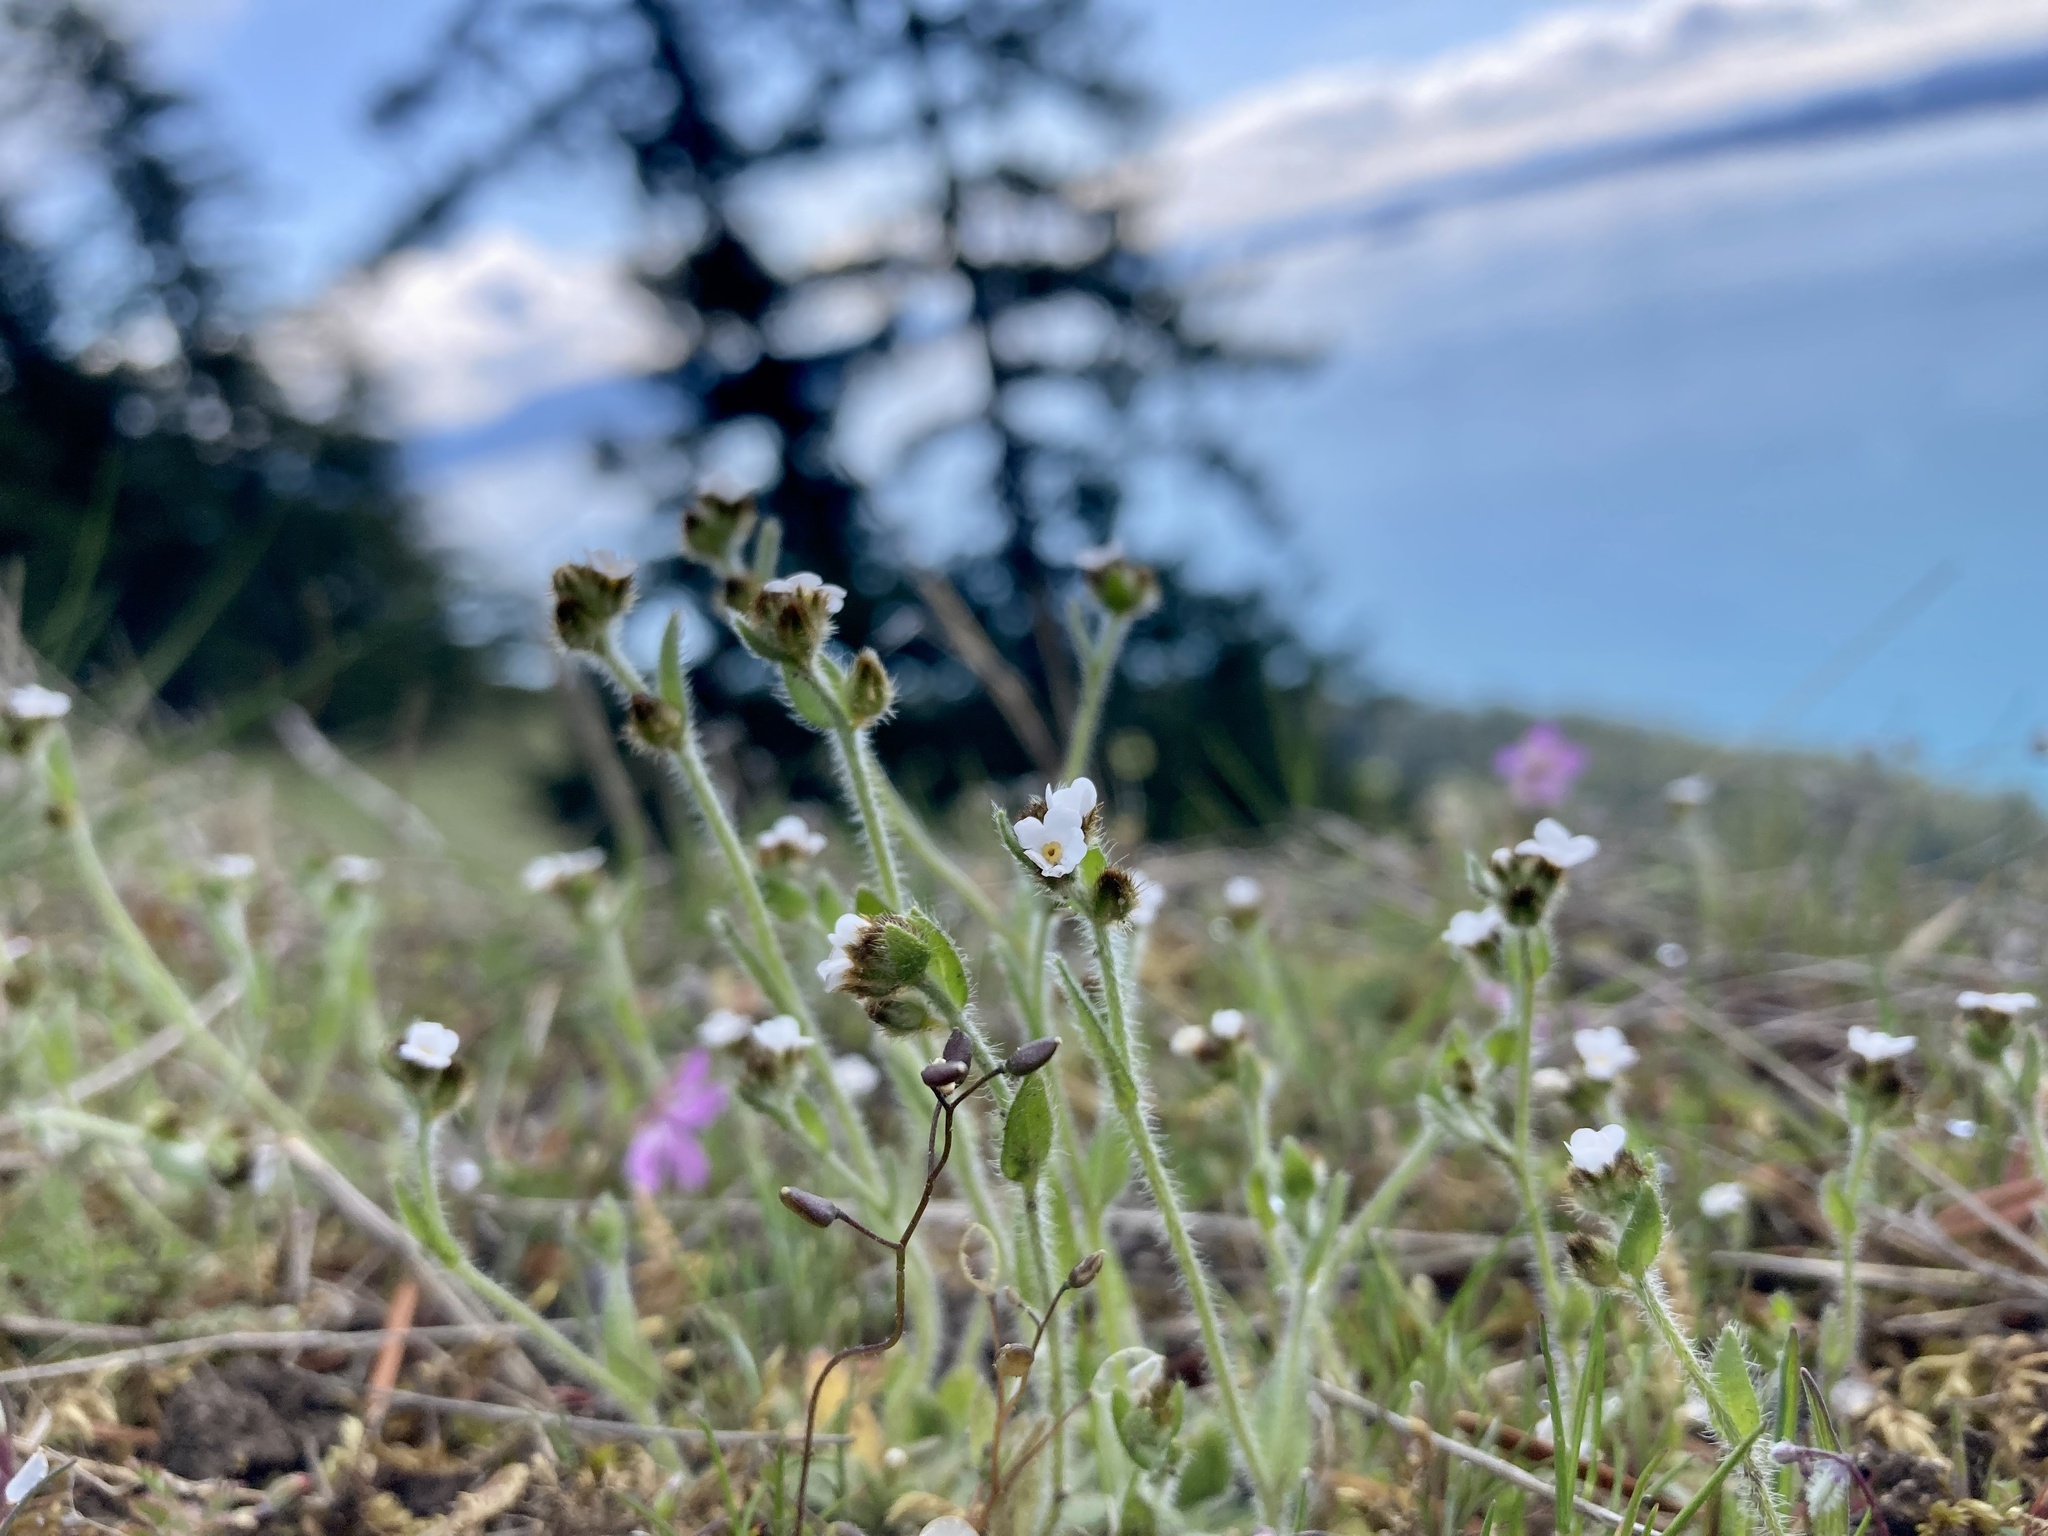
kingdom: Plantae
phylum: Tracheophyta
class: Magnoliopsida
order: Boraginales
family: Boraginaceae
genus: Plagiobothrys
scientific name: Plagiobothrys tenellus
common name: Pacific popcornflower
